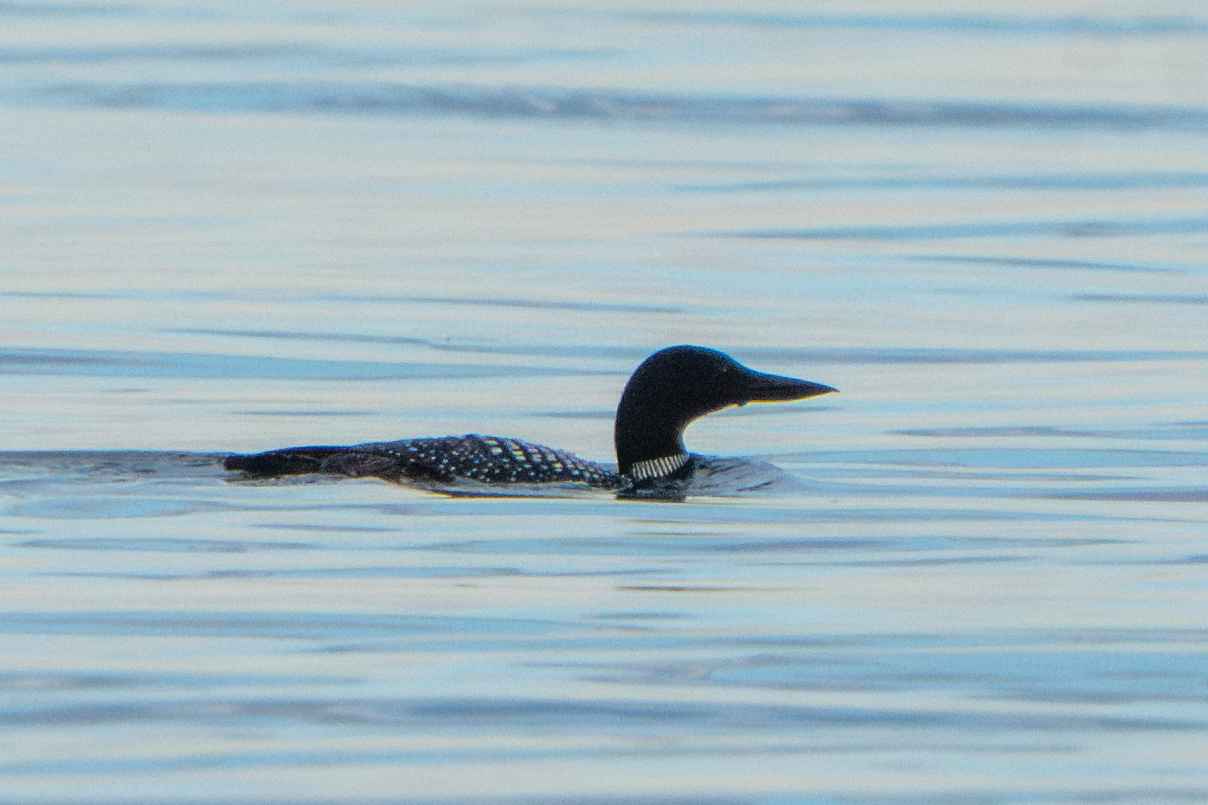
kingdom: Animalia
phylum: Chordata
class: Aves
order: Gaviiformes
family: Gaviidae
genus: Gavia
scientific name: Gavia immer
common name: Common loon
